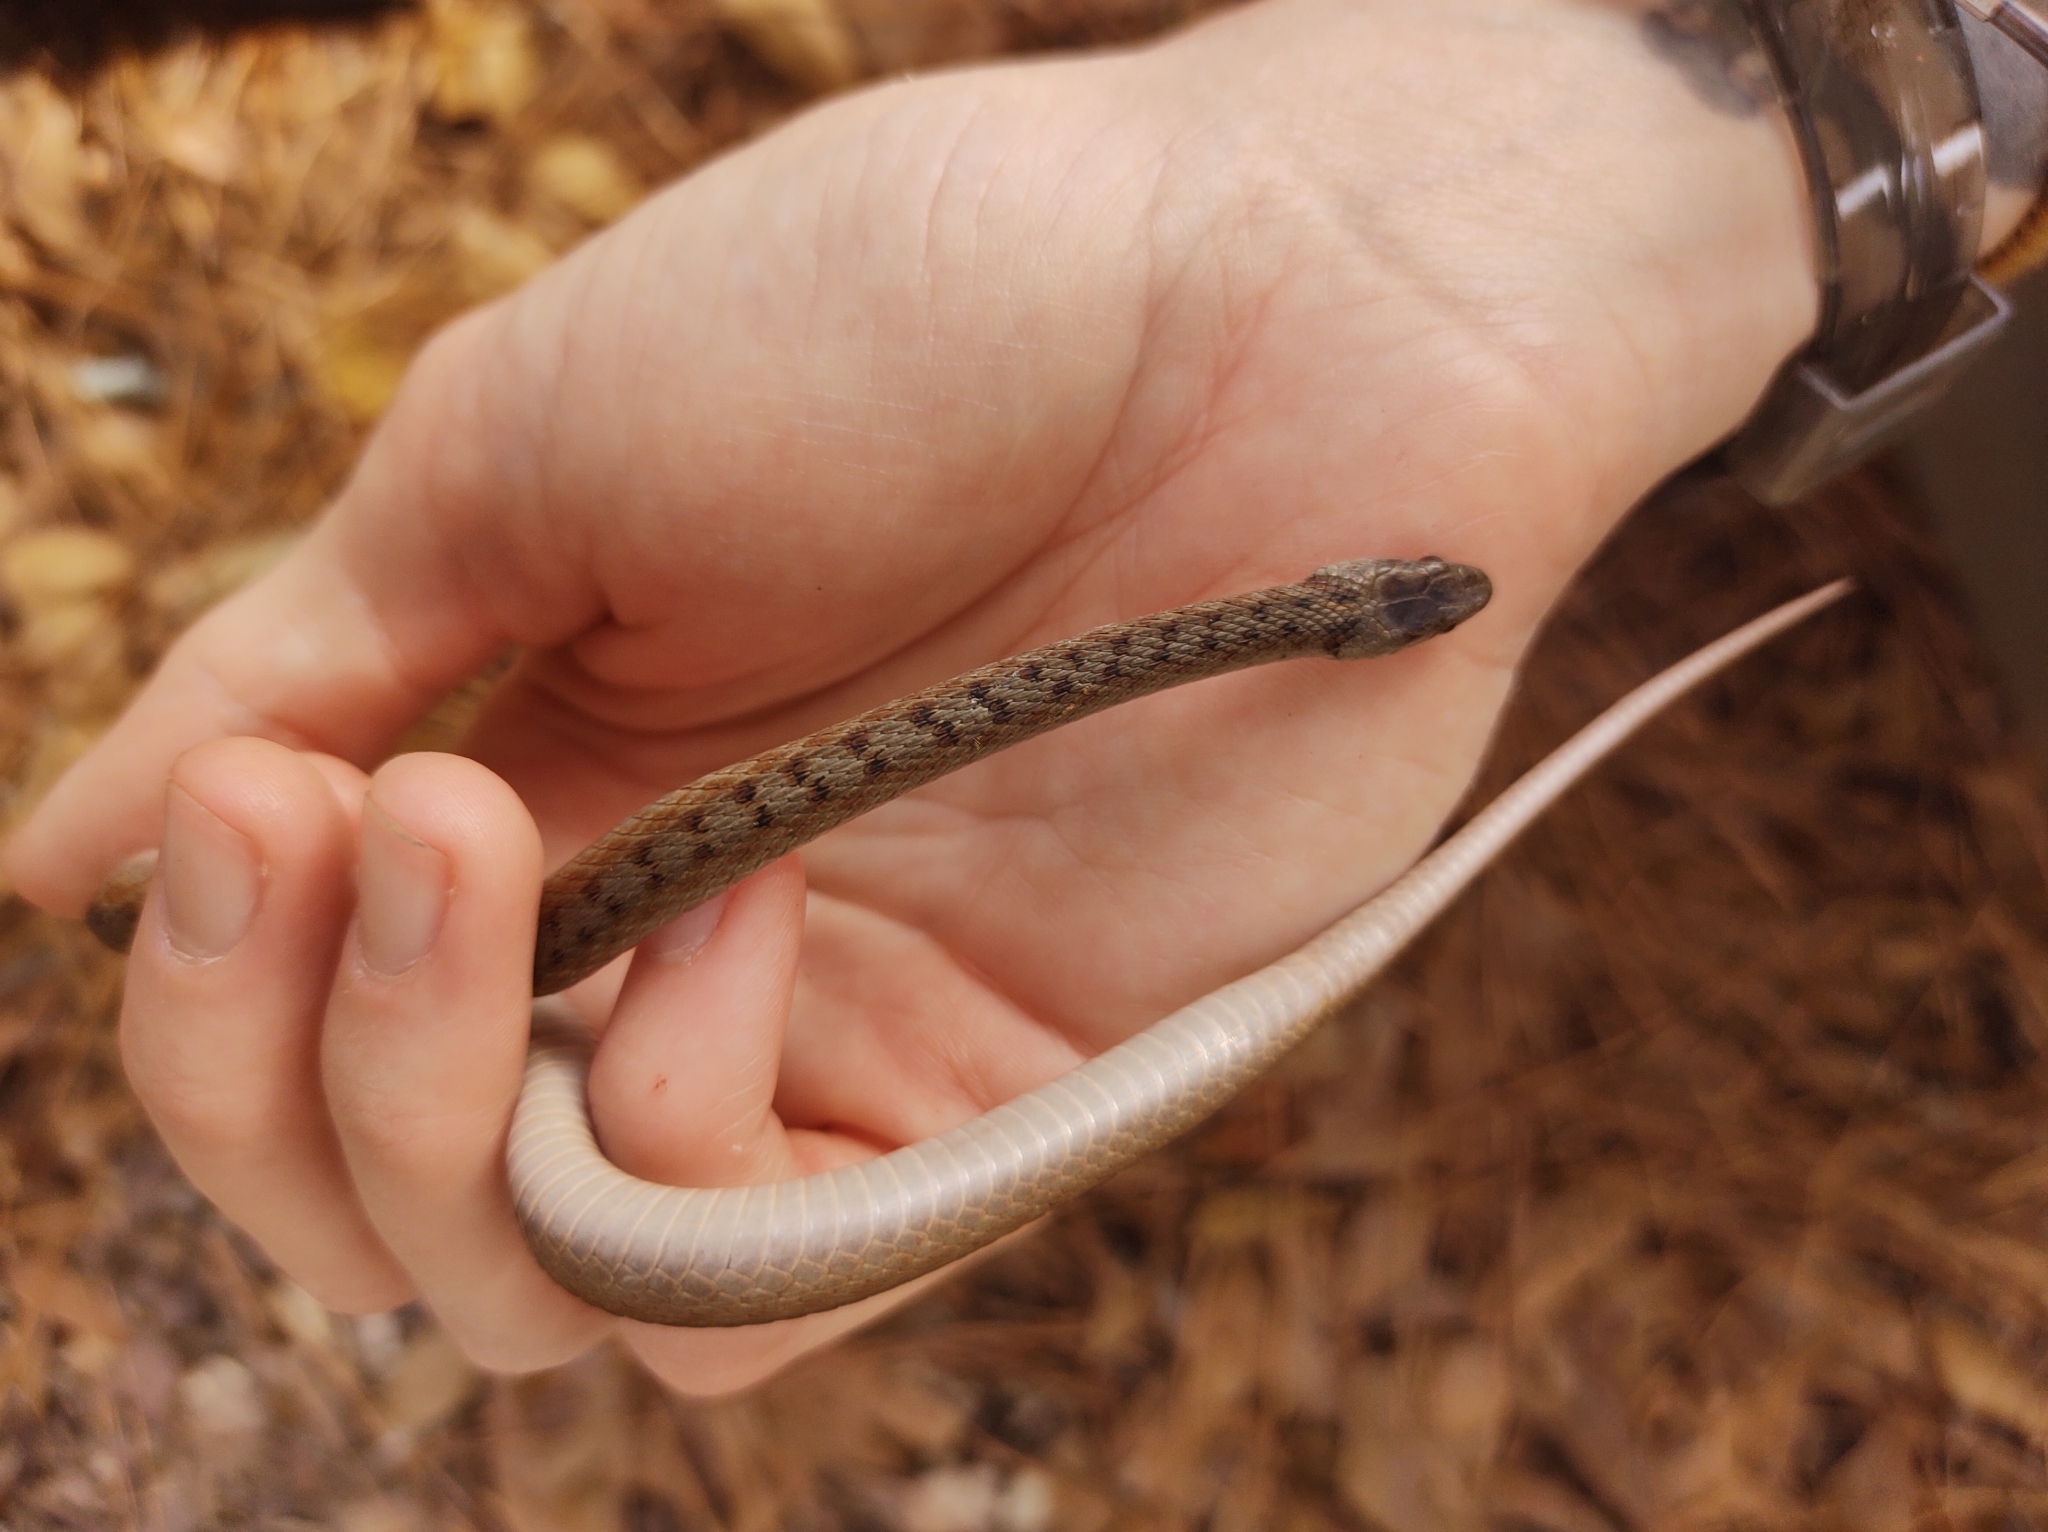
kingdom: Animalia
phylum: Chordata
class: Squamata
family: Colubridae
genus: Storeria
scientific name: Storeria dekayi
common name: (dekay’s) brown snake
